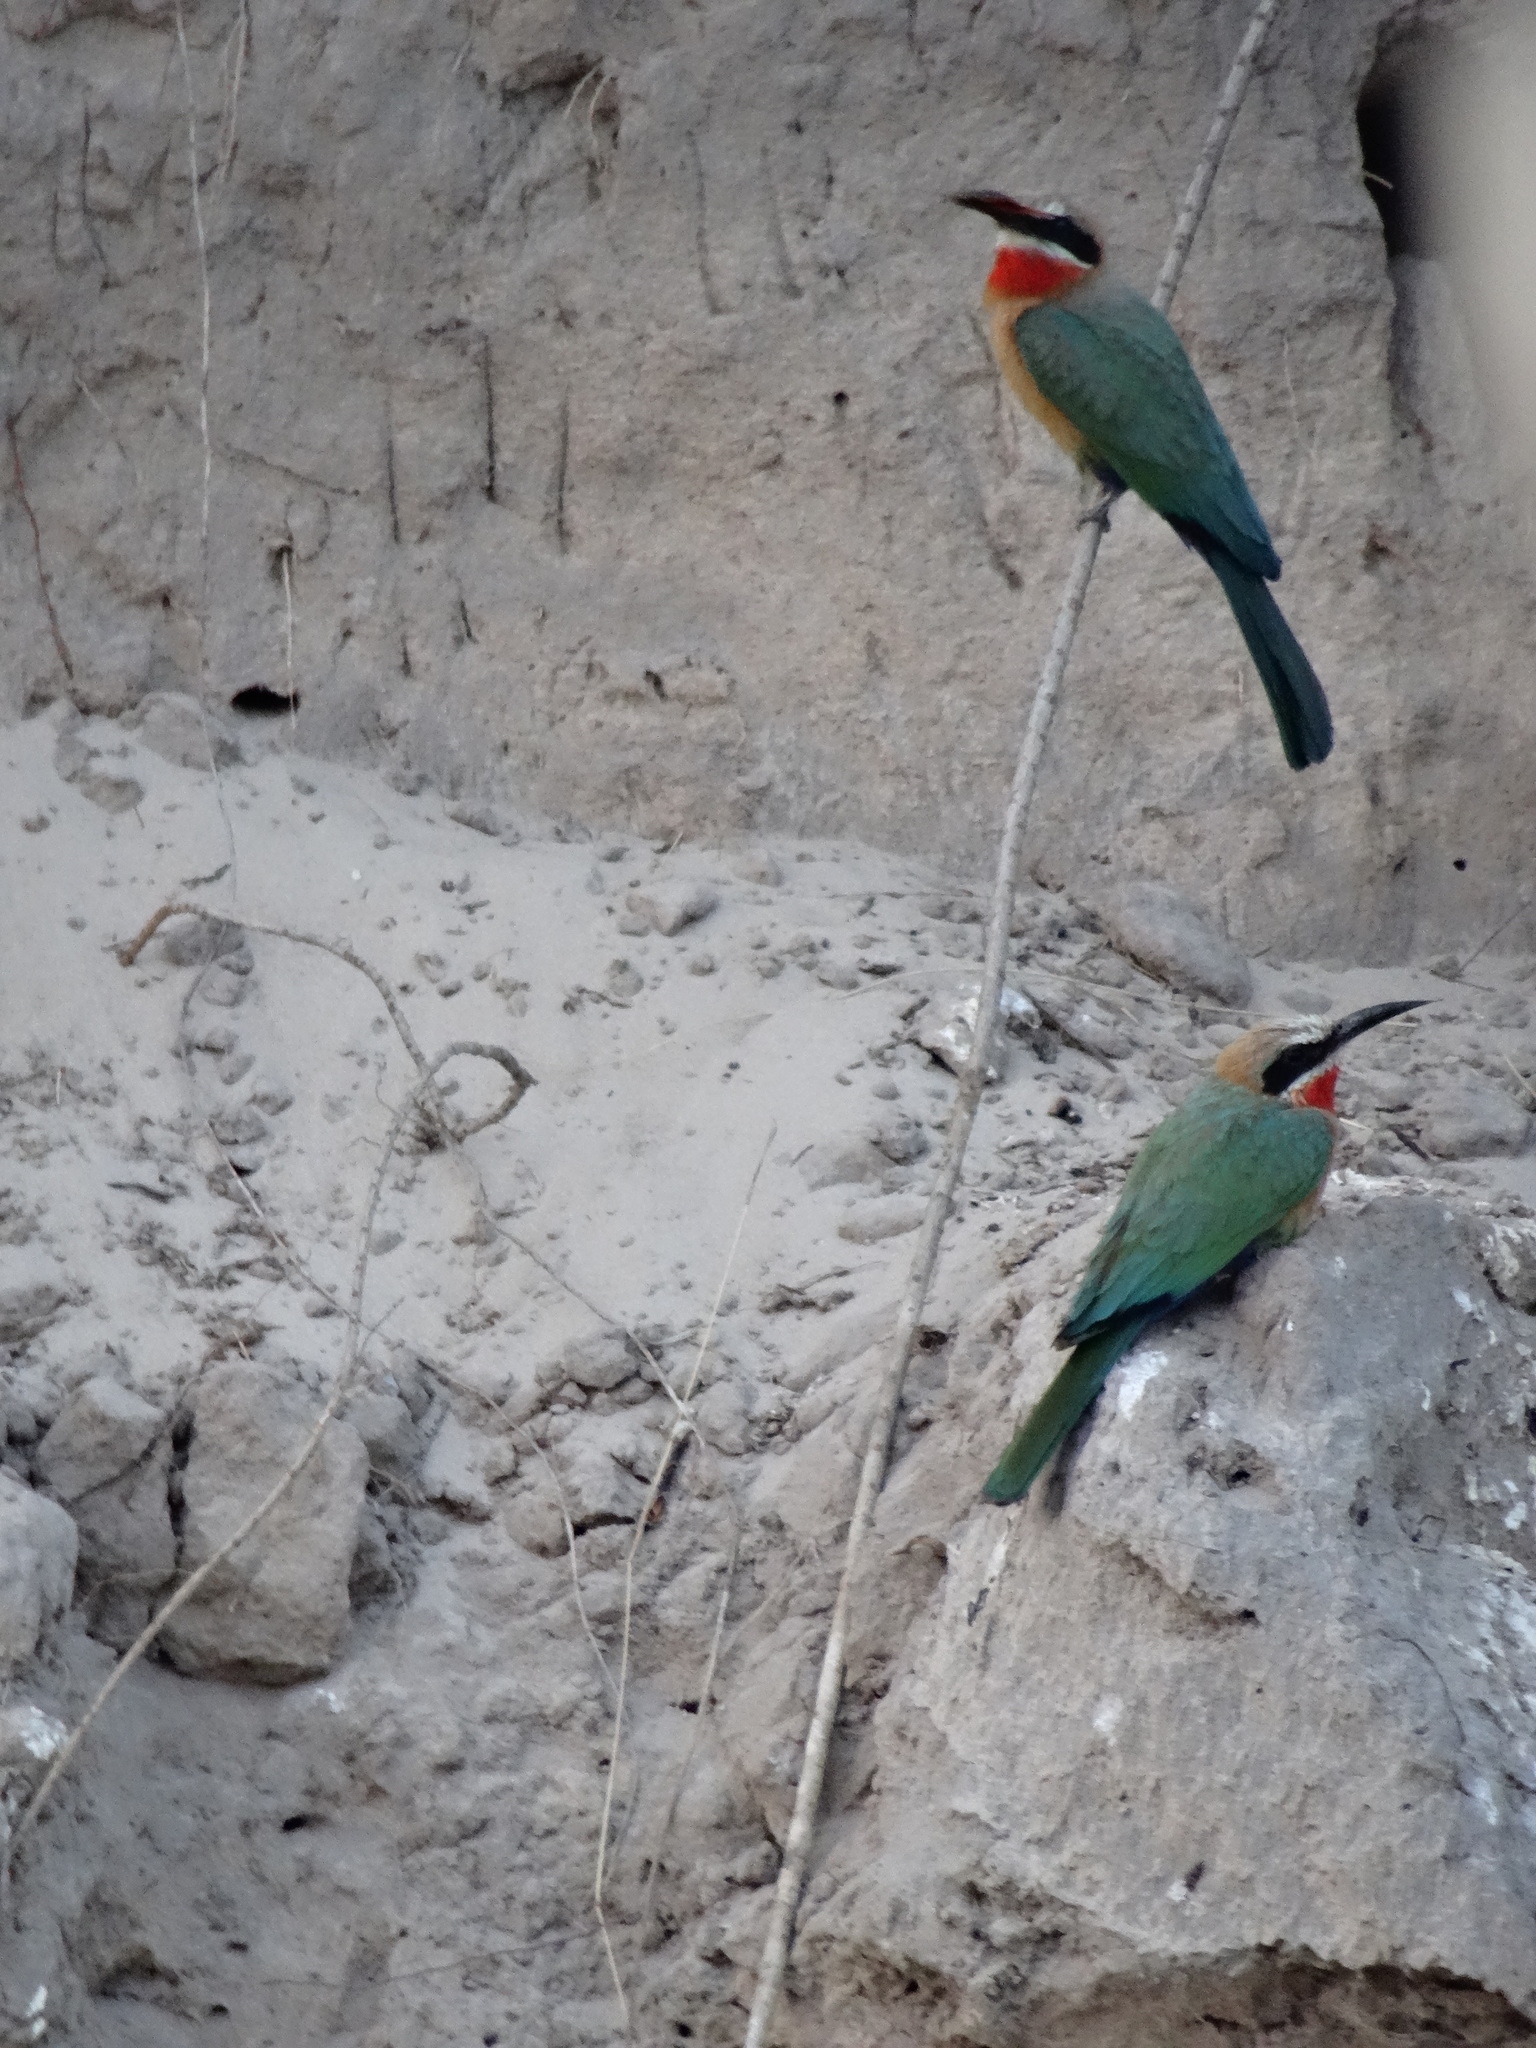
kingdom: Animalia
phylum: Chordata
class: Aves
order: Coraciiformes
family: Meropidae
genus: Merops
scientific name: Merops bullockoides
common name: White-fronted bee-eater
